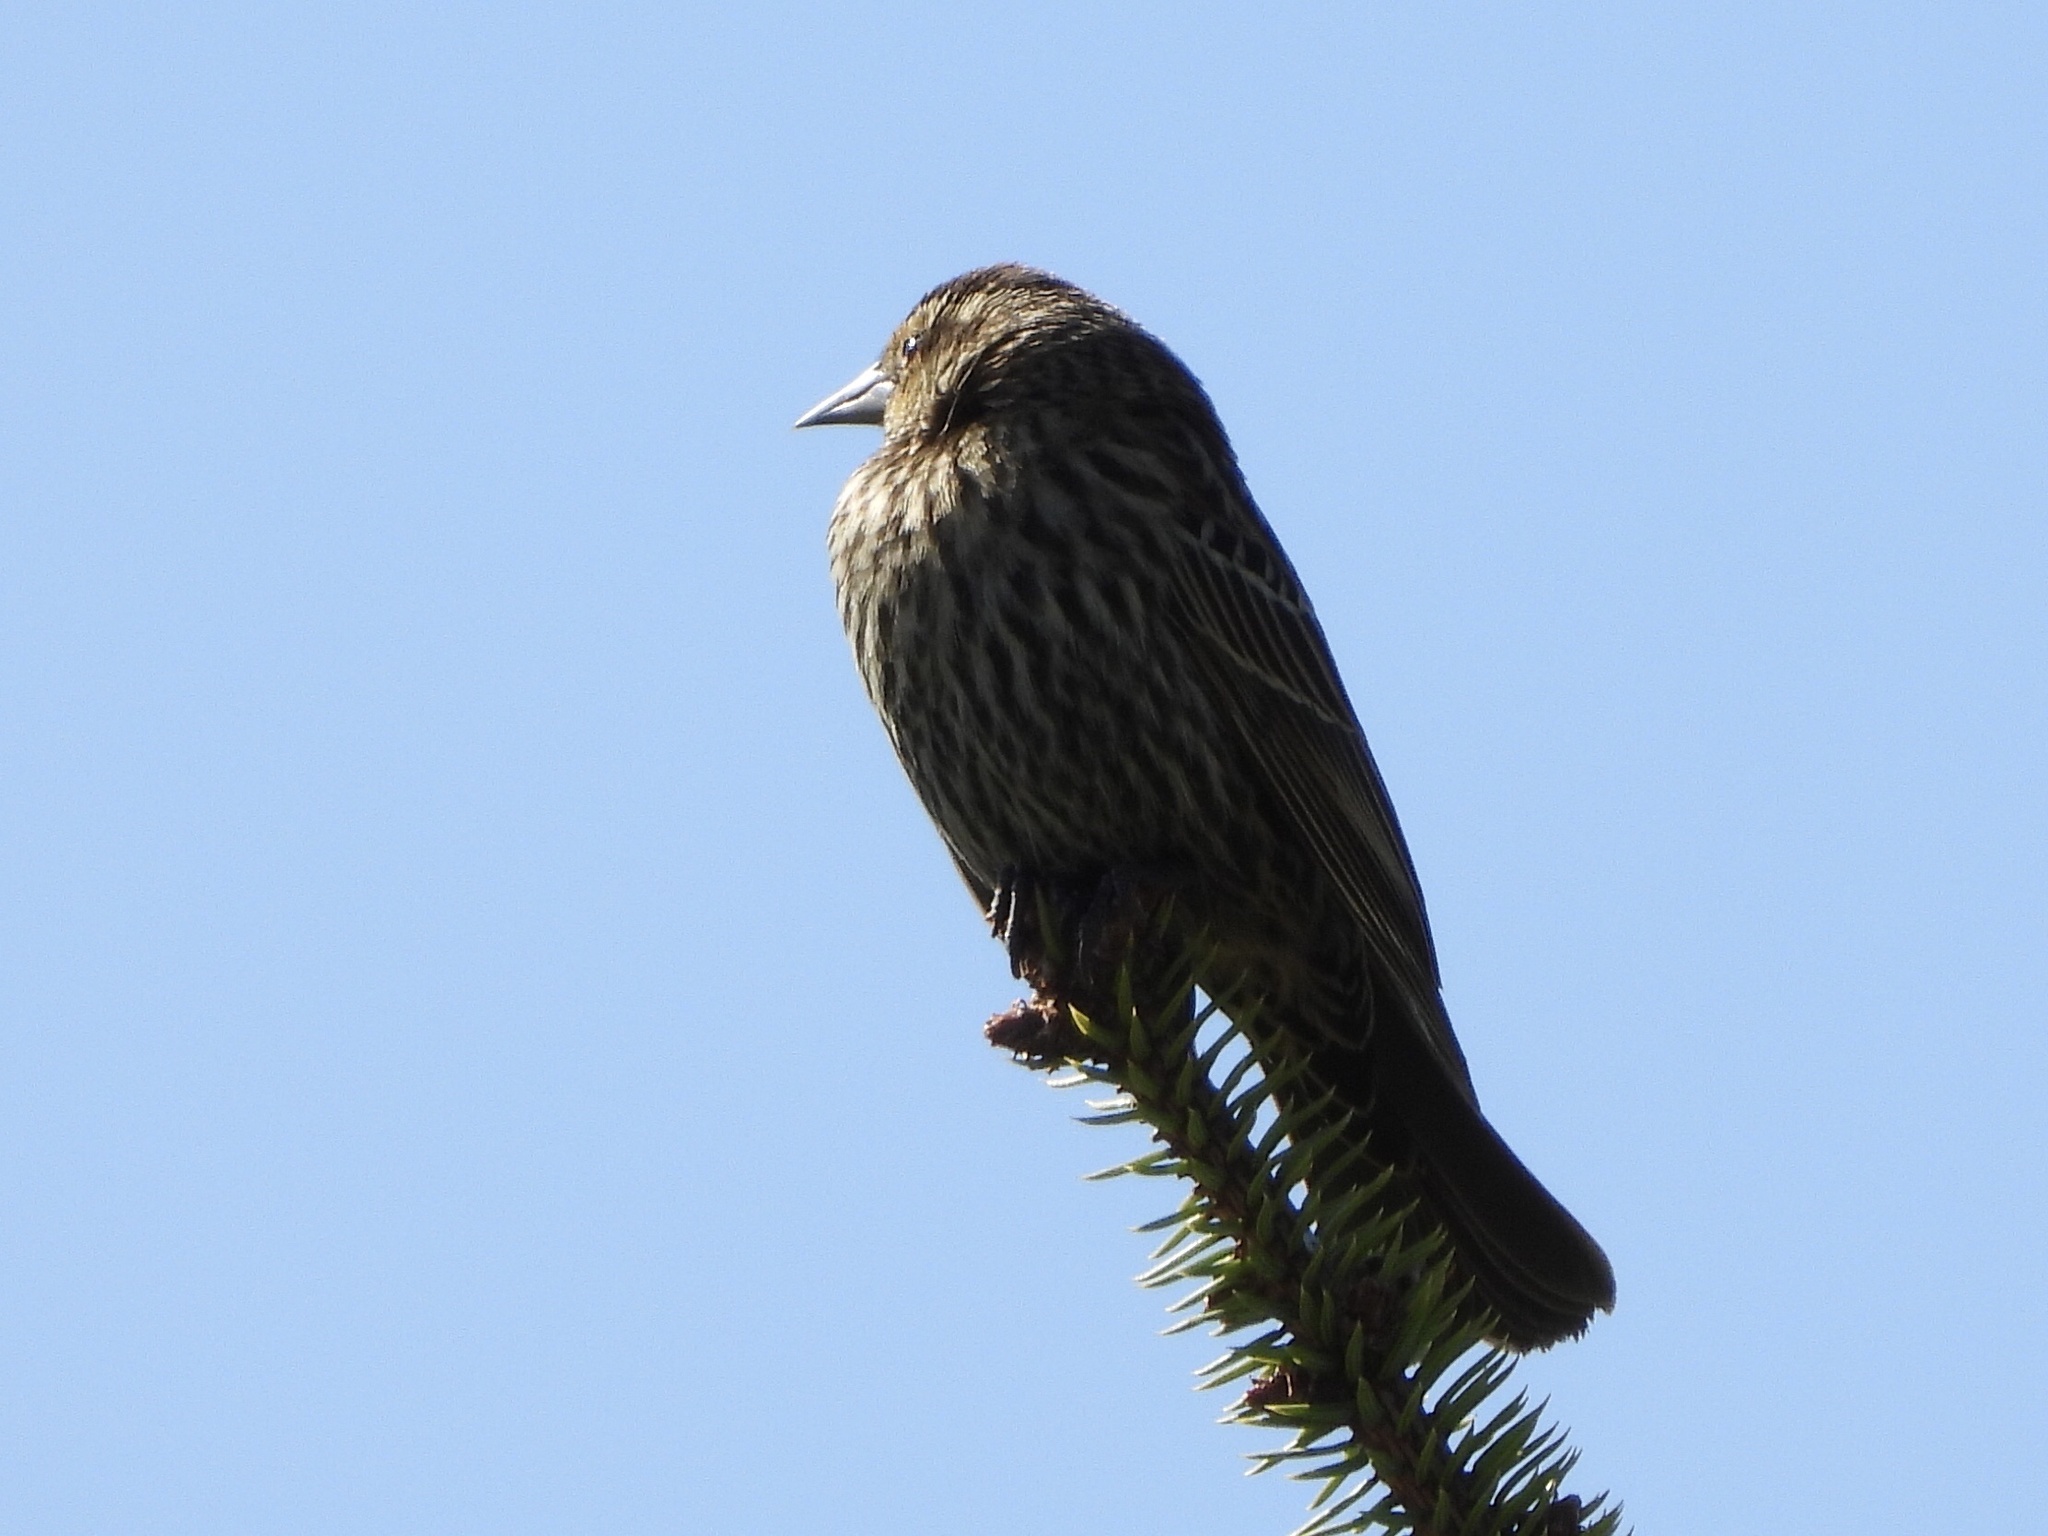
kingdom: Animalia
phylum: Chordata
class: Aves
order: Passeriformes
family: Icteridae
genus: Agelaius
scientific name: Agelaius phoeniceus
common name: Red-winged blackbird
